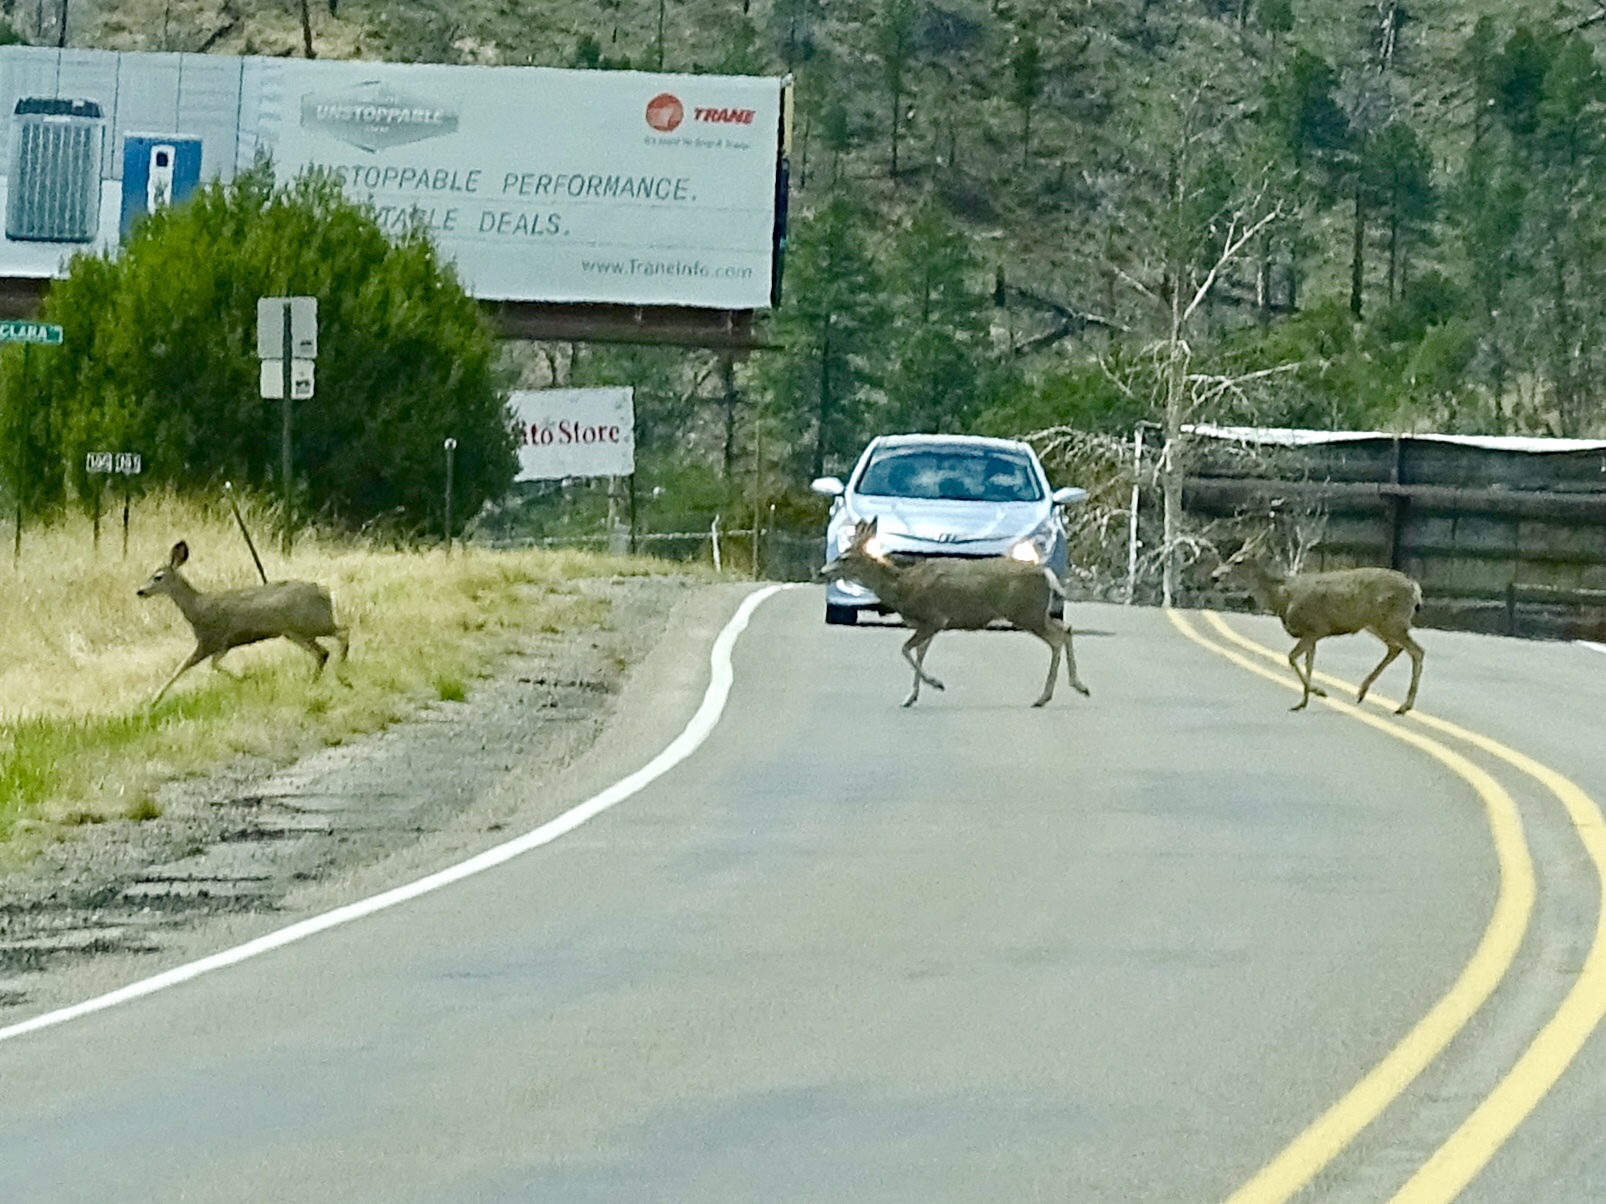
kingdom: Animalia
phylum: Chordata
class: Mammalia
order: Artiodactyla
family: Cervidae
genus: Odocoileus
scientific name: Odocoileus hemionus
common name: Mule deer
